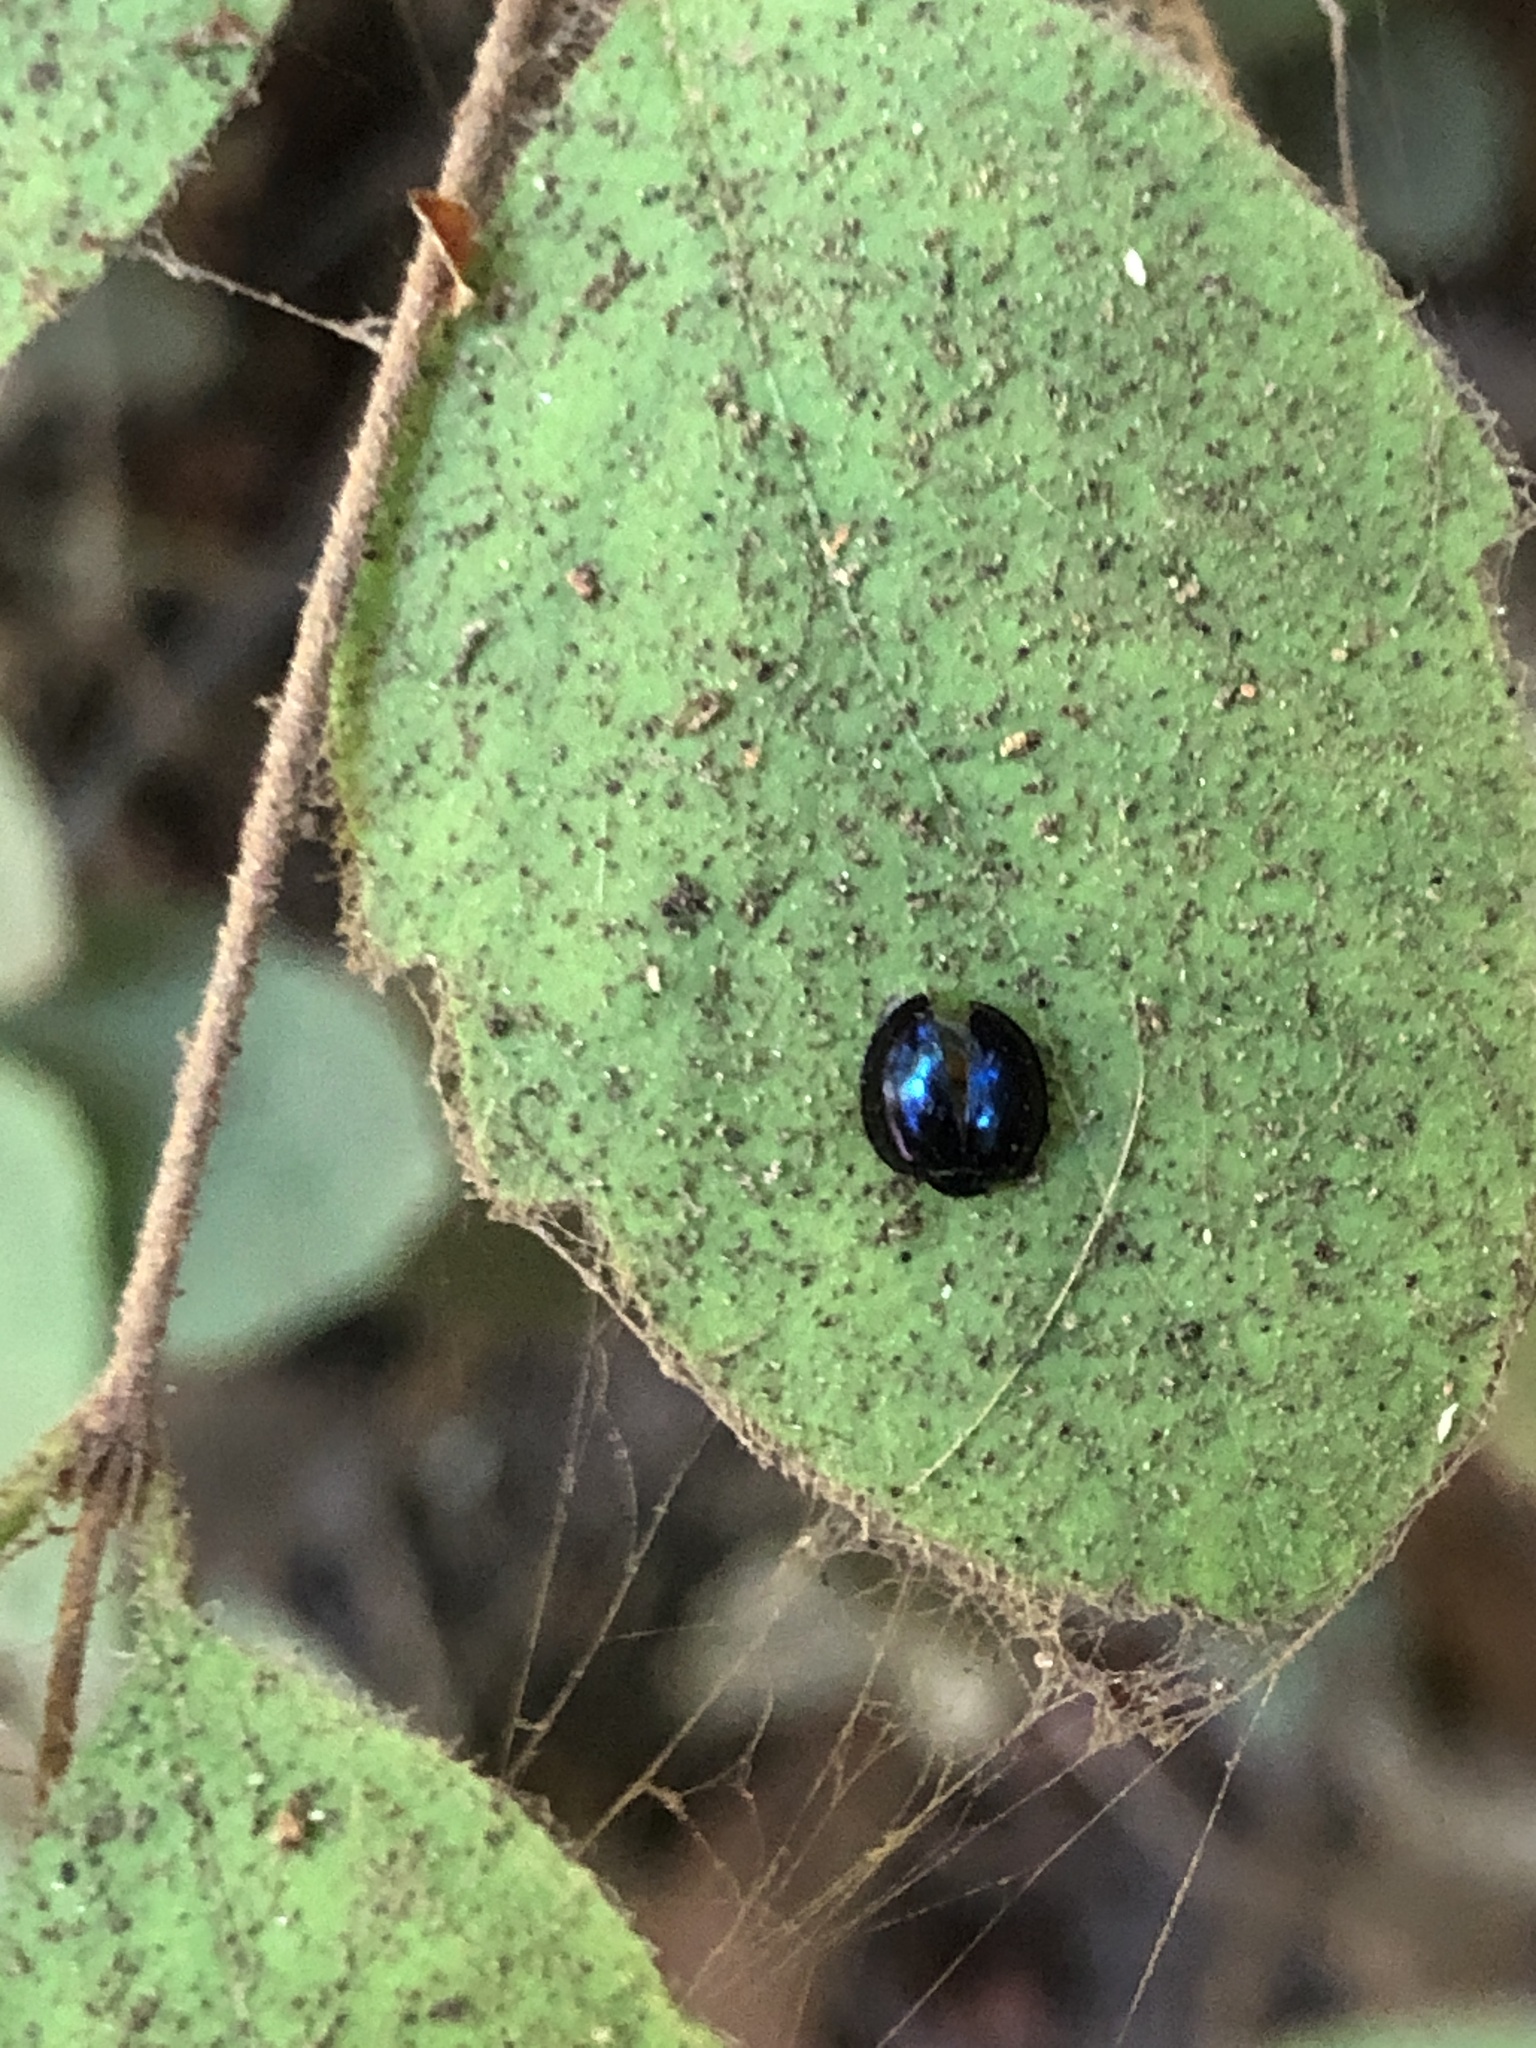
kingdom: Animalia
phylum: Arthropoda
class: Insecta
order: Coleoptera
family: Coccinellidae
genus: Halmus
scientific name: Halmus chalybeus
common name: Steel blue ladybird beetle
